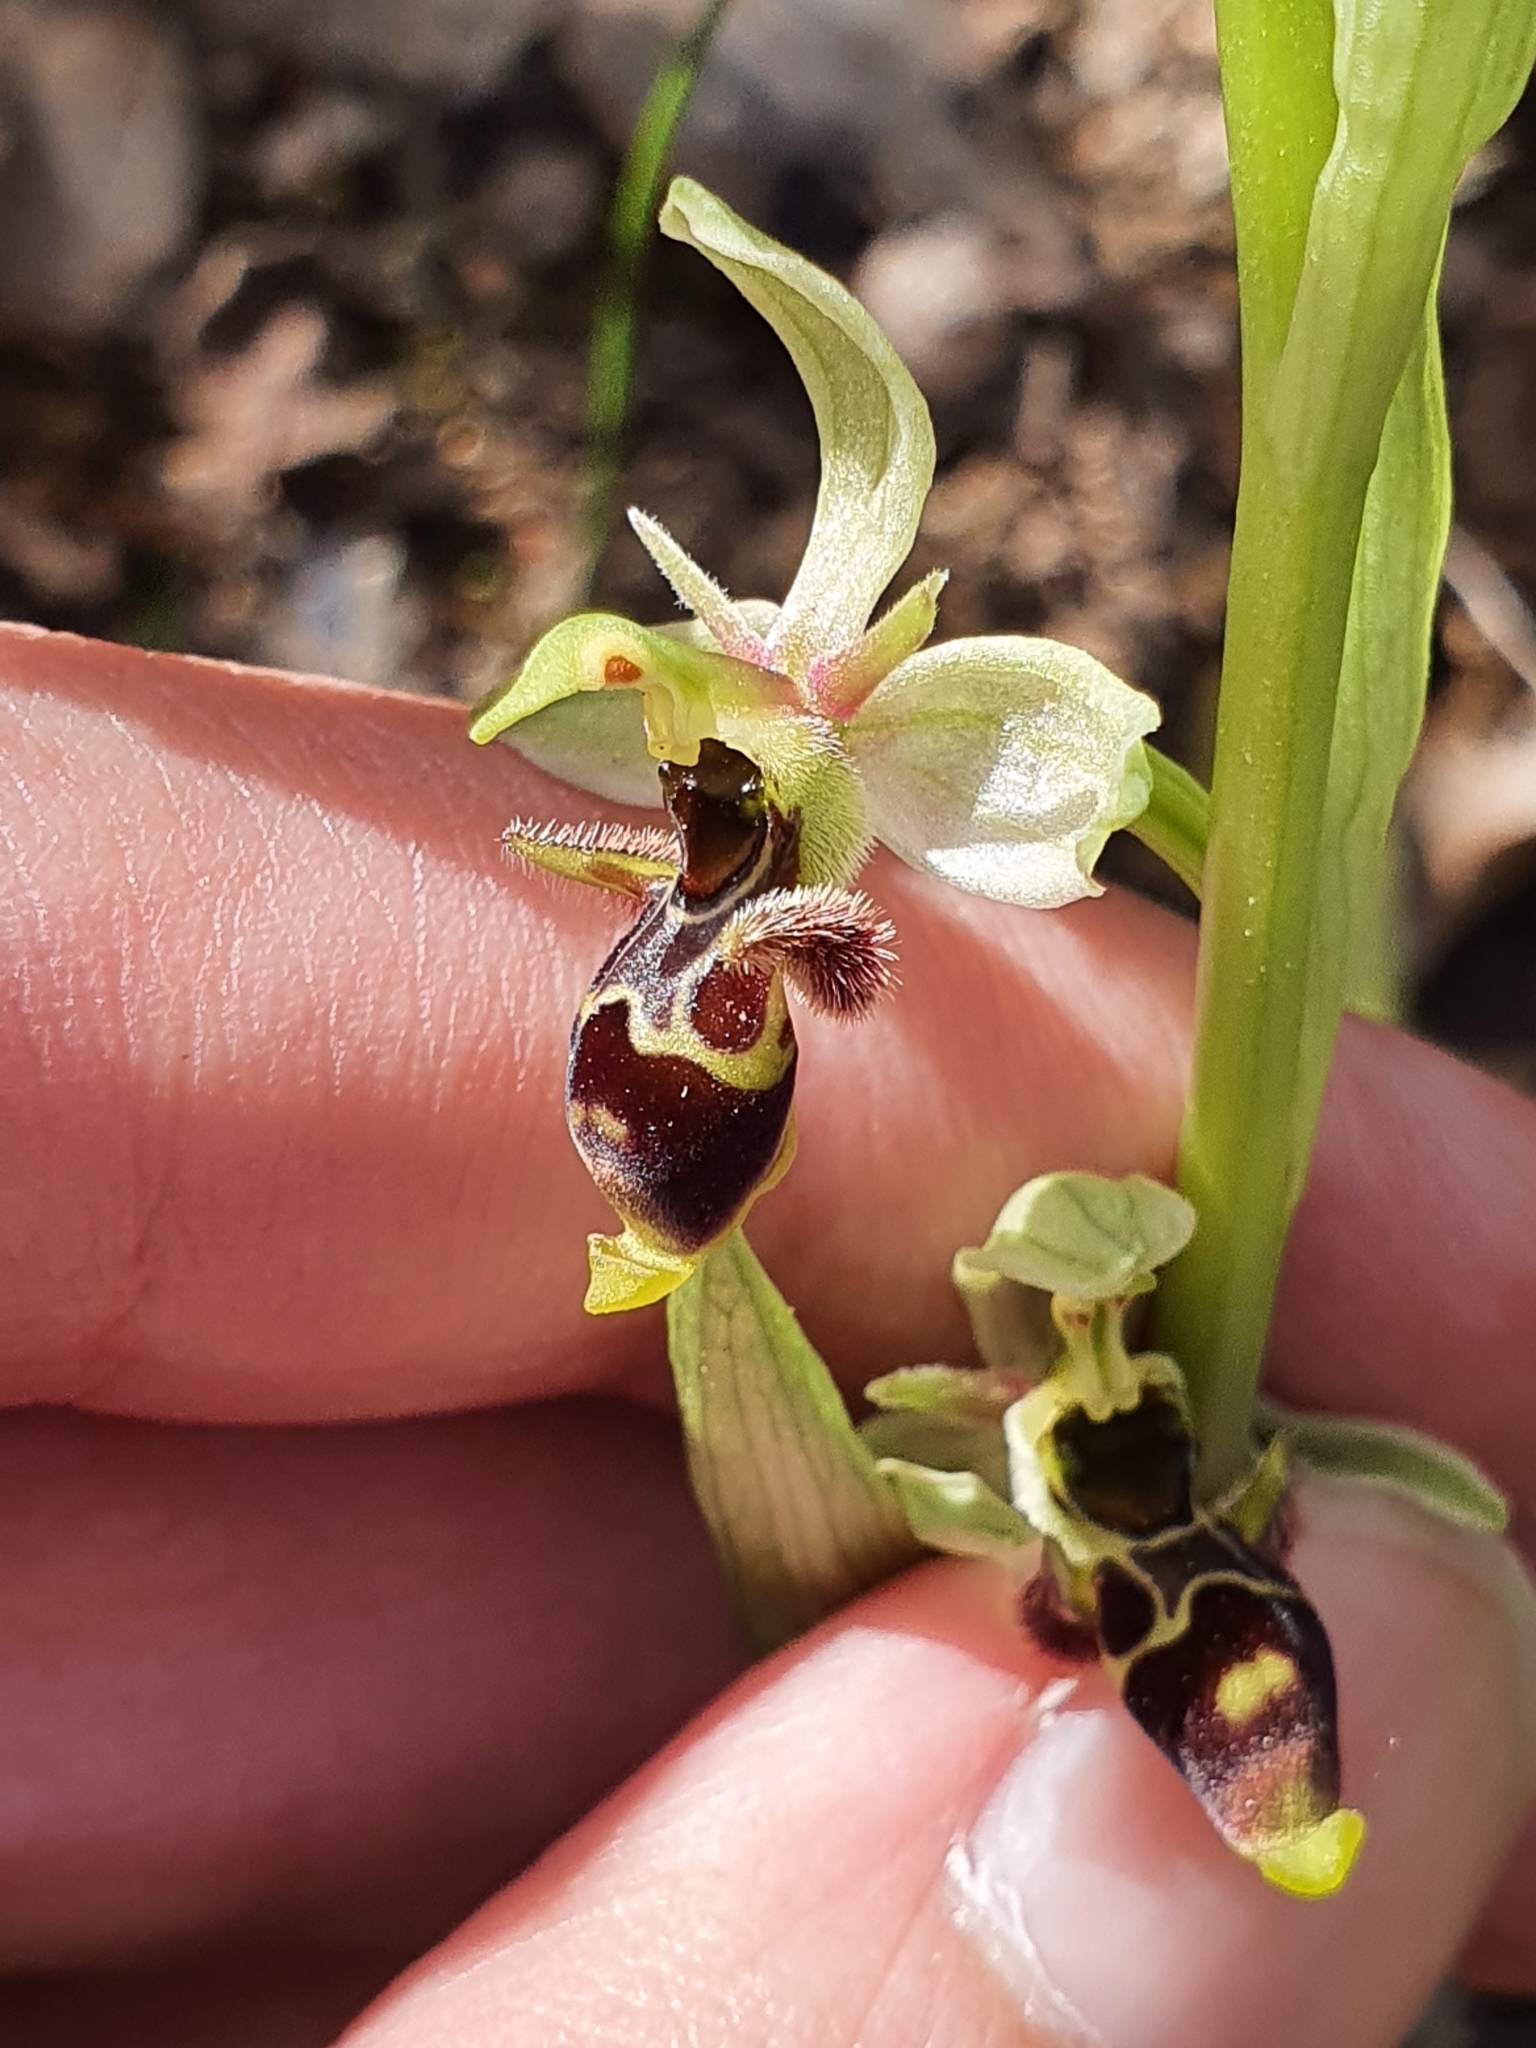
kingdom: Plantae
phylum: Tracheophyta
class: Liliopsida
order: Asparagales
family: Orchidaceae
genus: Ophrys
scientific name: Ophrys scolopax
